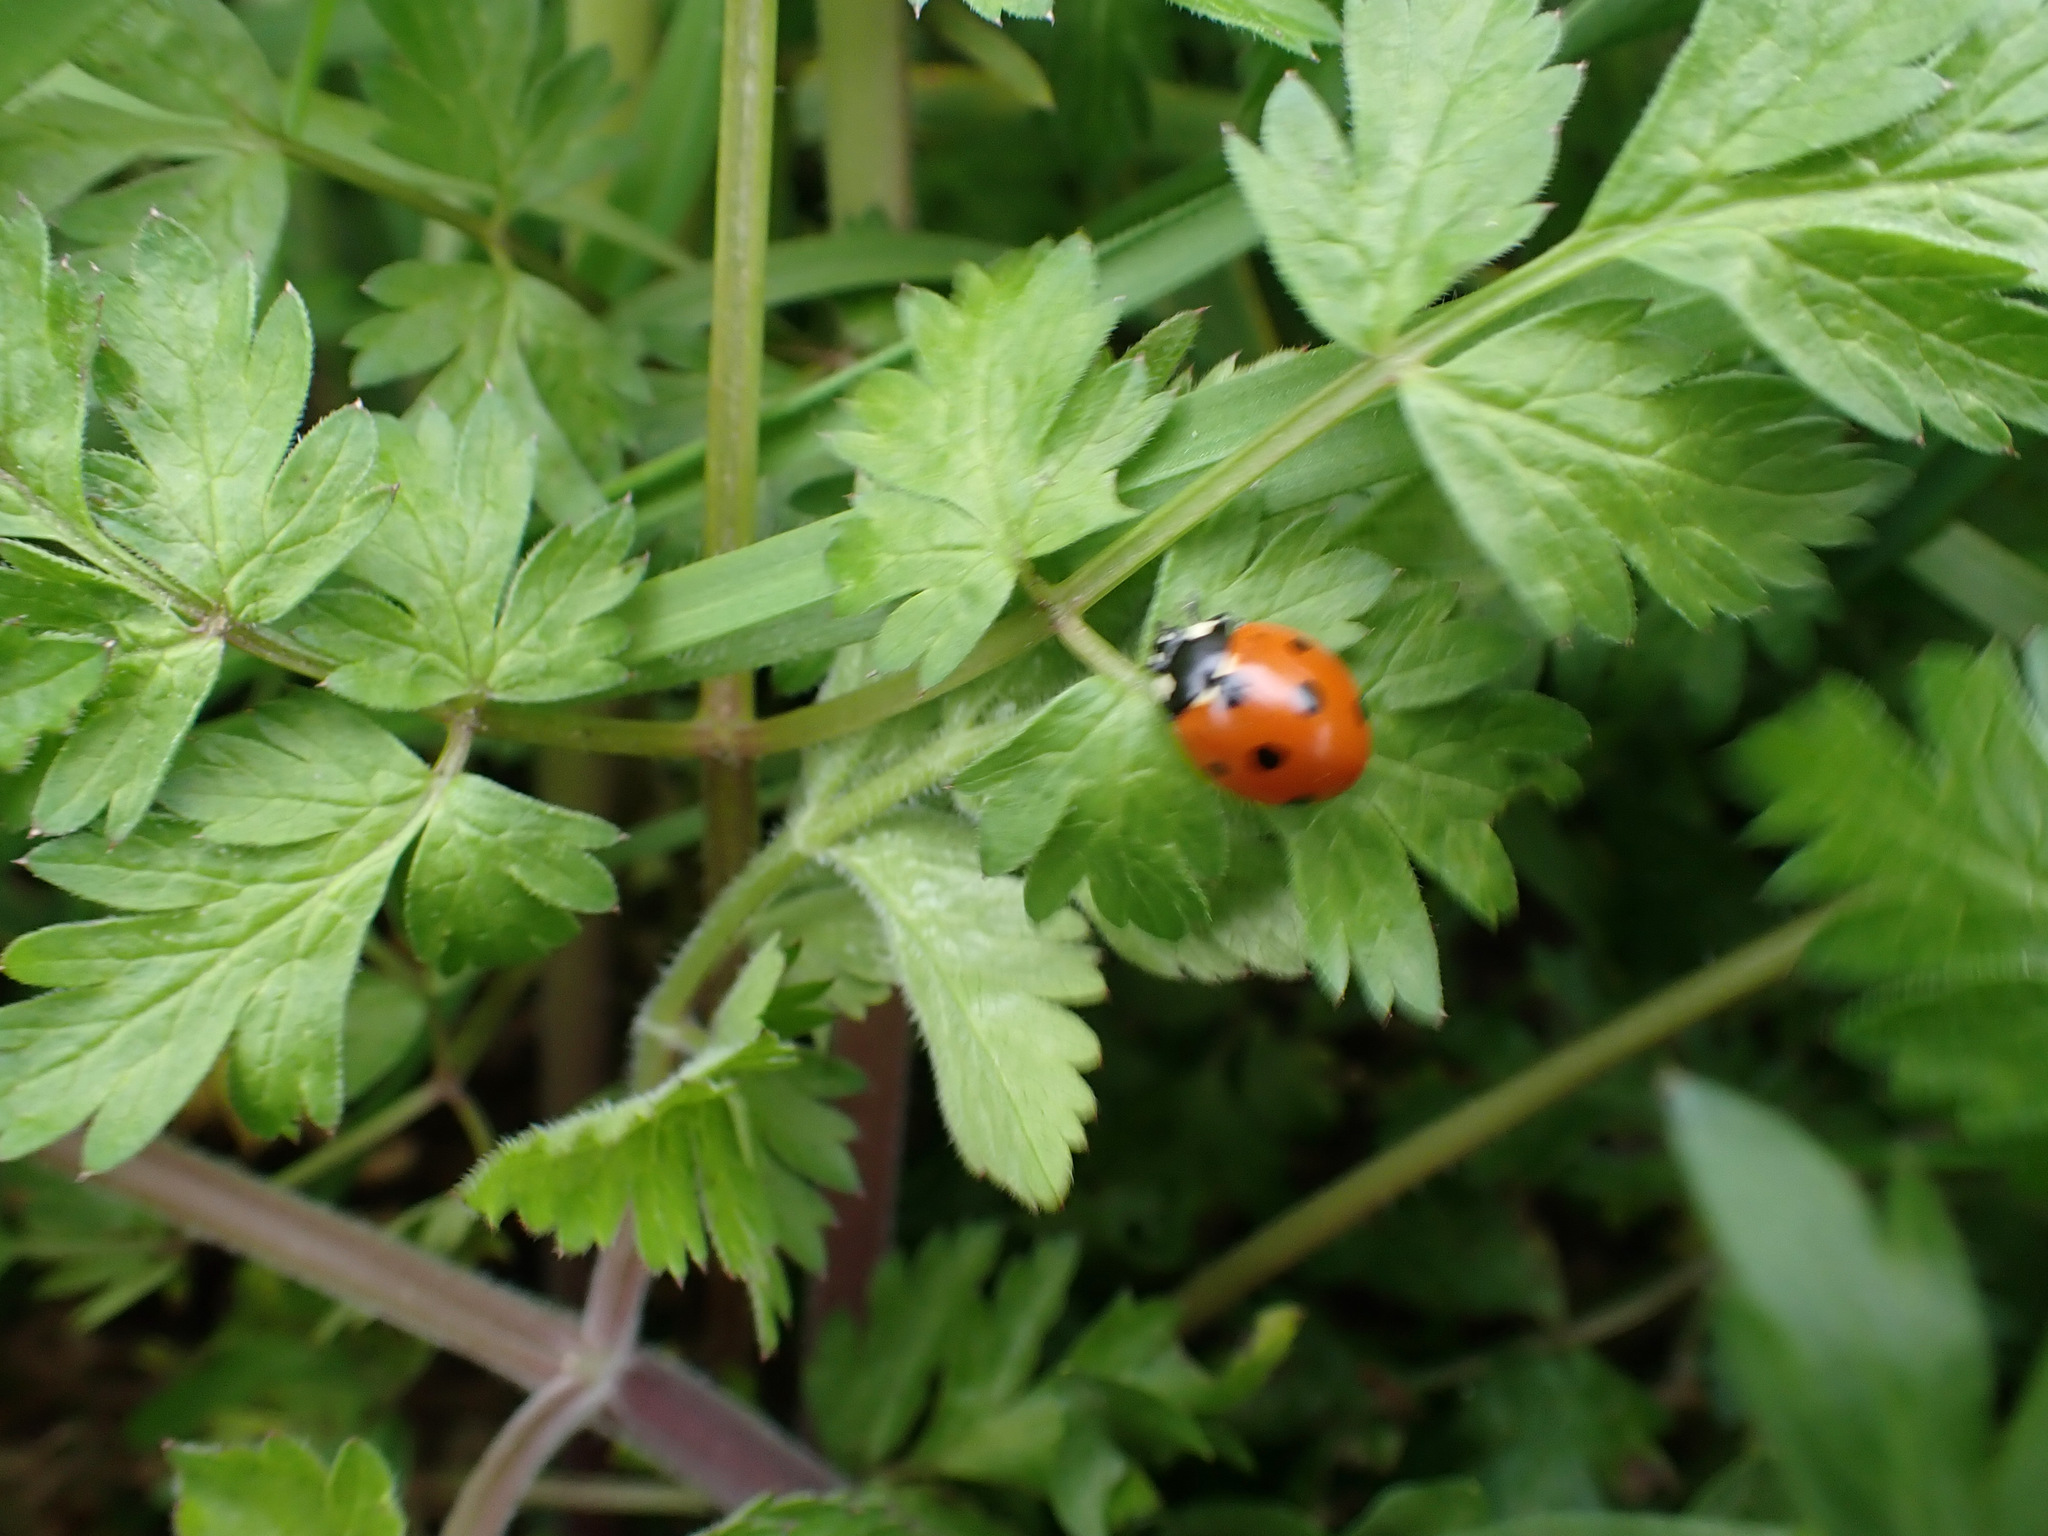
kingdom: Animalia
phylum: Arthropoda
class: Insecta
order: Coleoptera
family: Coccinellidae
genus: Coccinella
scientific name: Coccinella septempunctata
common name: Sevenspotted lady beetle
